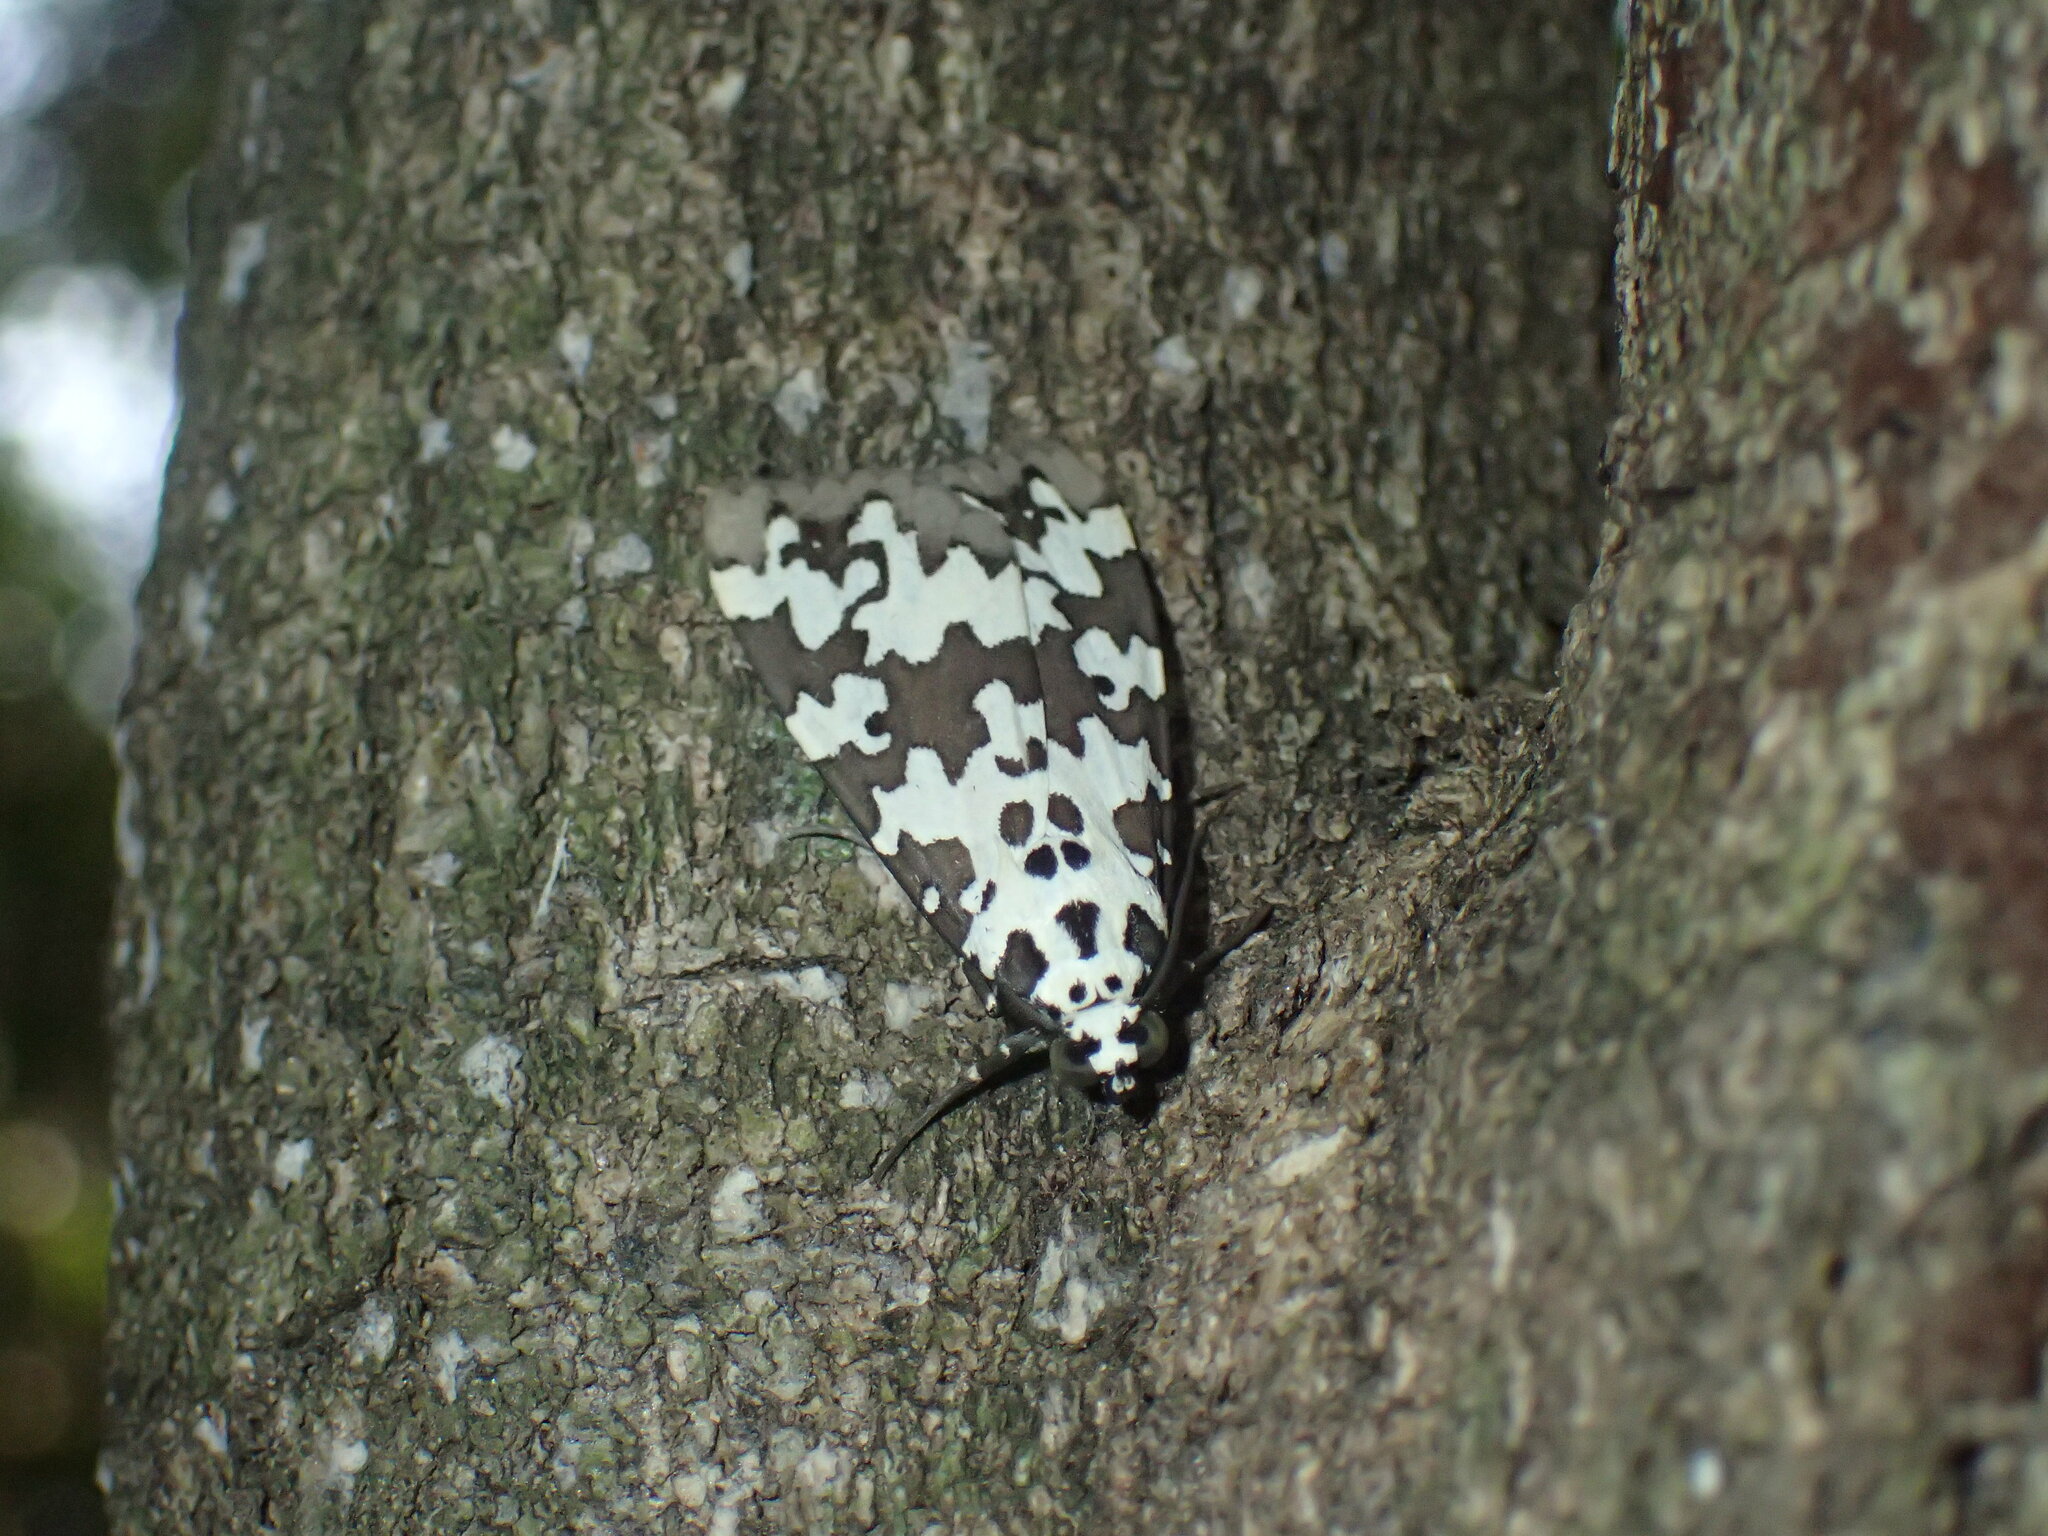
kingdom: Animalia
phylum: Arthropoda
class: Insecta
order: Lepidoptera
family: Erebidae
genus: Digama
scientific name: Digama strabonis
